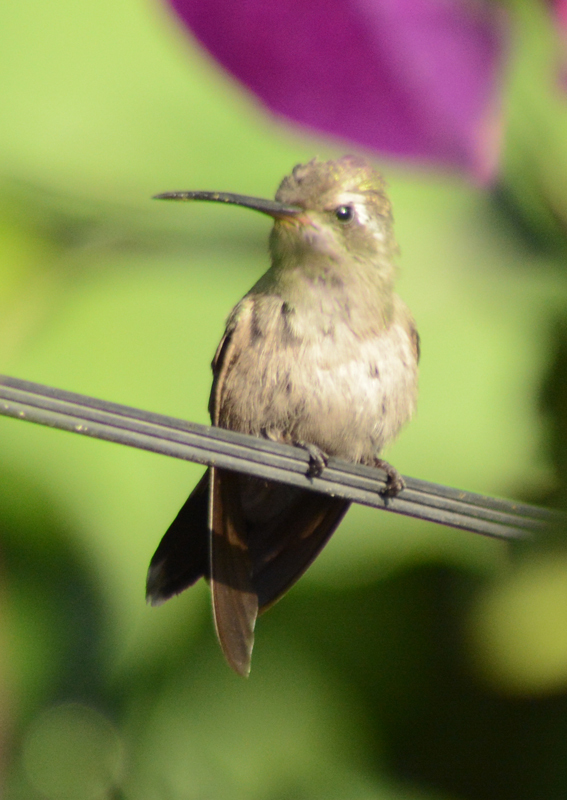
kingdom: Animalia
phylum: Chordata
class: Aves
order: Apodiformes
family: Trochilidae
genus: Cynanthus
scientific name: Cynanthus latirostris
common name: Broad-billed hummingbird
